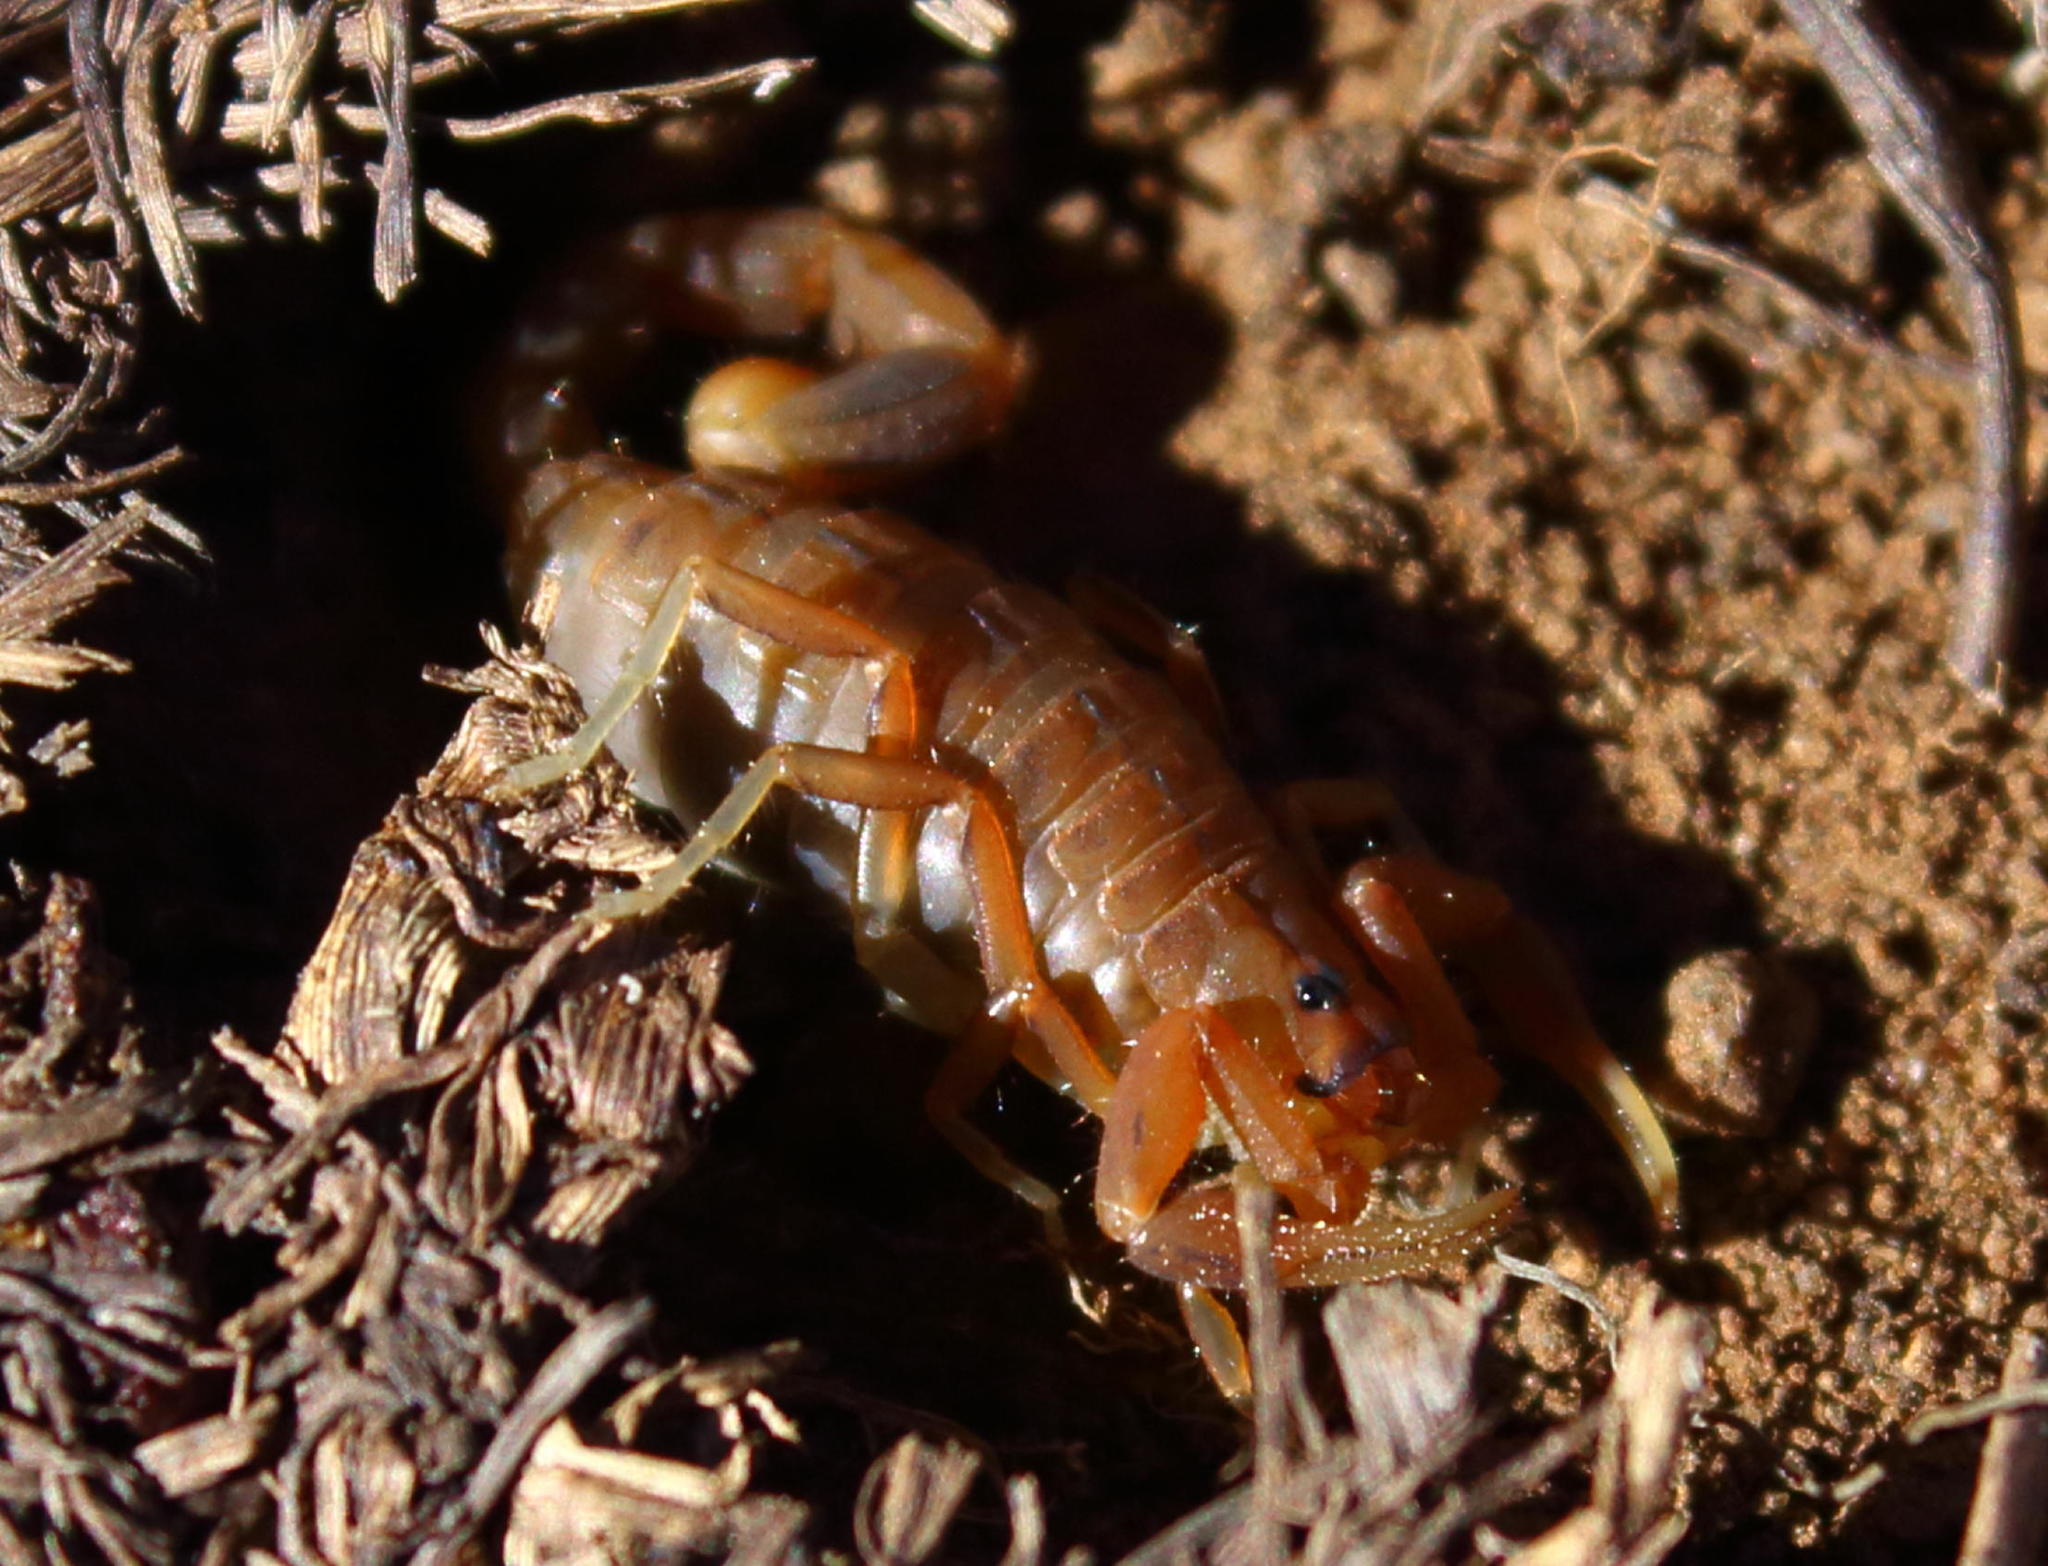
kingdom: Animalia
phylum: Arthropoda
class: Arachnida
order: Scorpiones
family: Buthidae
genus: Uroplectes
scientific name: Uroplectes carinatus
